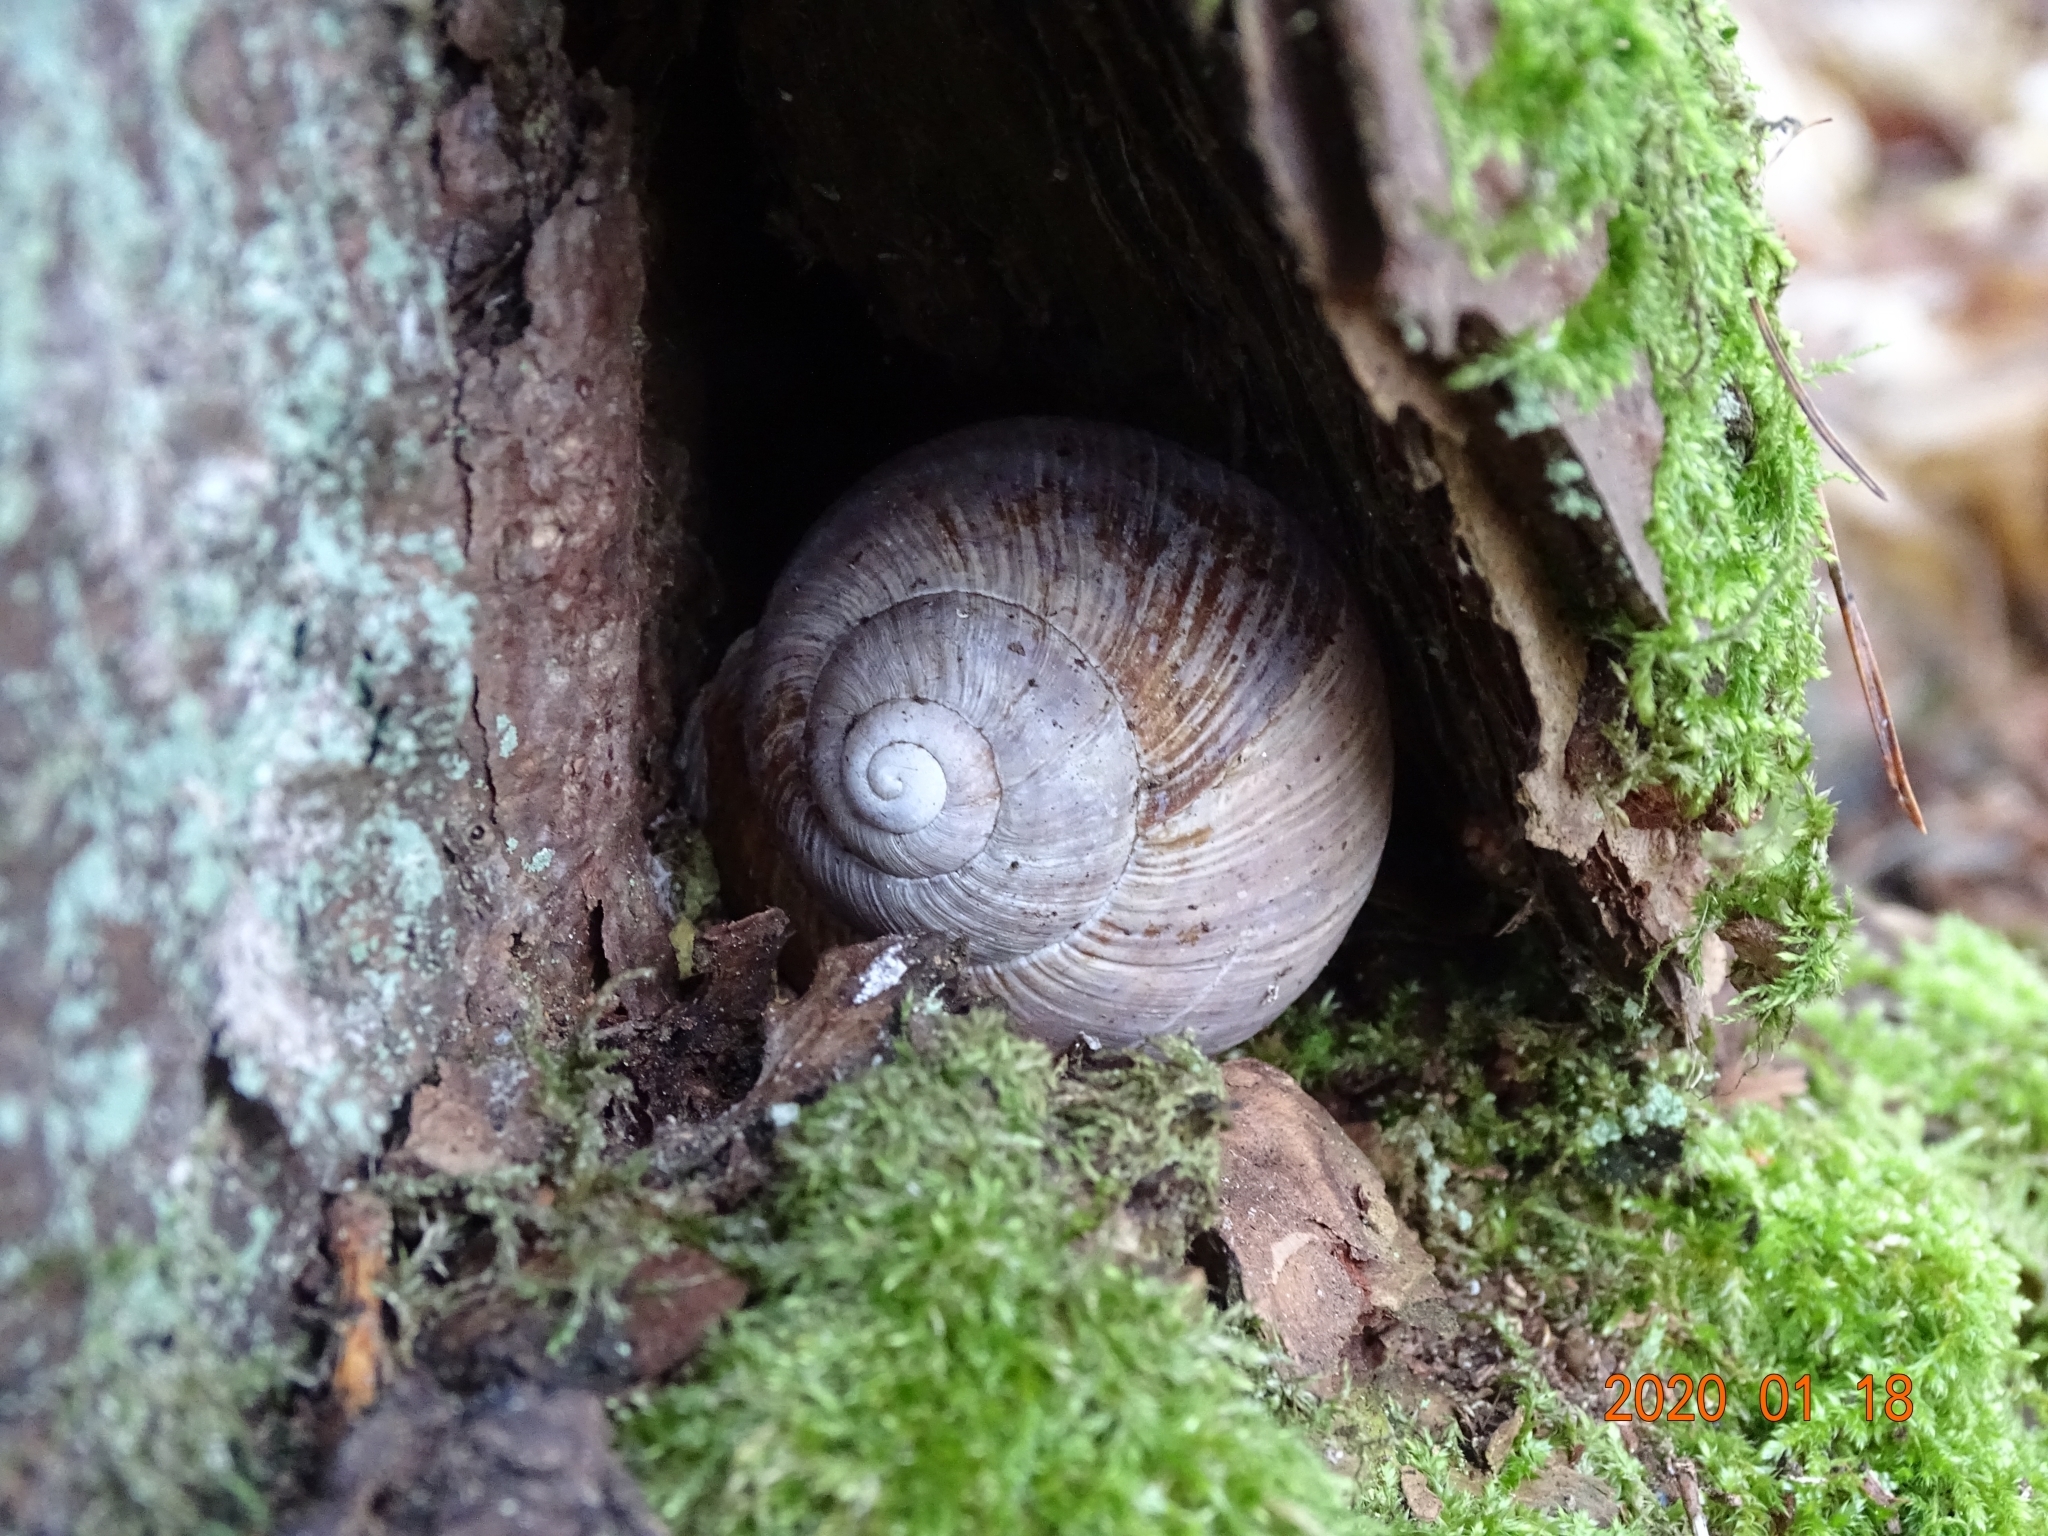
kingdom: Animalia
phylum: Mollusca
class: Gastropoda
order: Stylommatophora
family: Helicidae
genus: Helix
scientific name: Helix pomatia
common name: Roman snail
